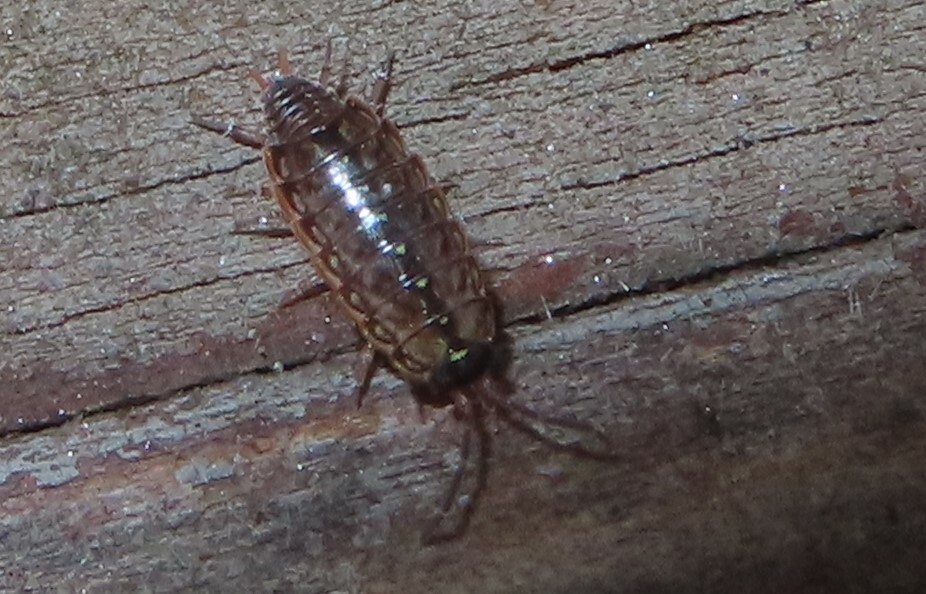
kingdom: Animalia
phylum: Arthropoda
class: Malacostraca
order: Isopoda
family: Philosciidae
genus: Philoscia
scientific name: Philoscia muscorum
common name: Common striped woodlouse
